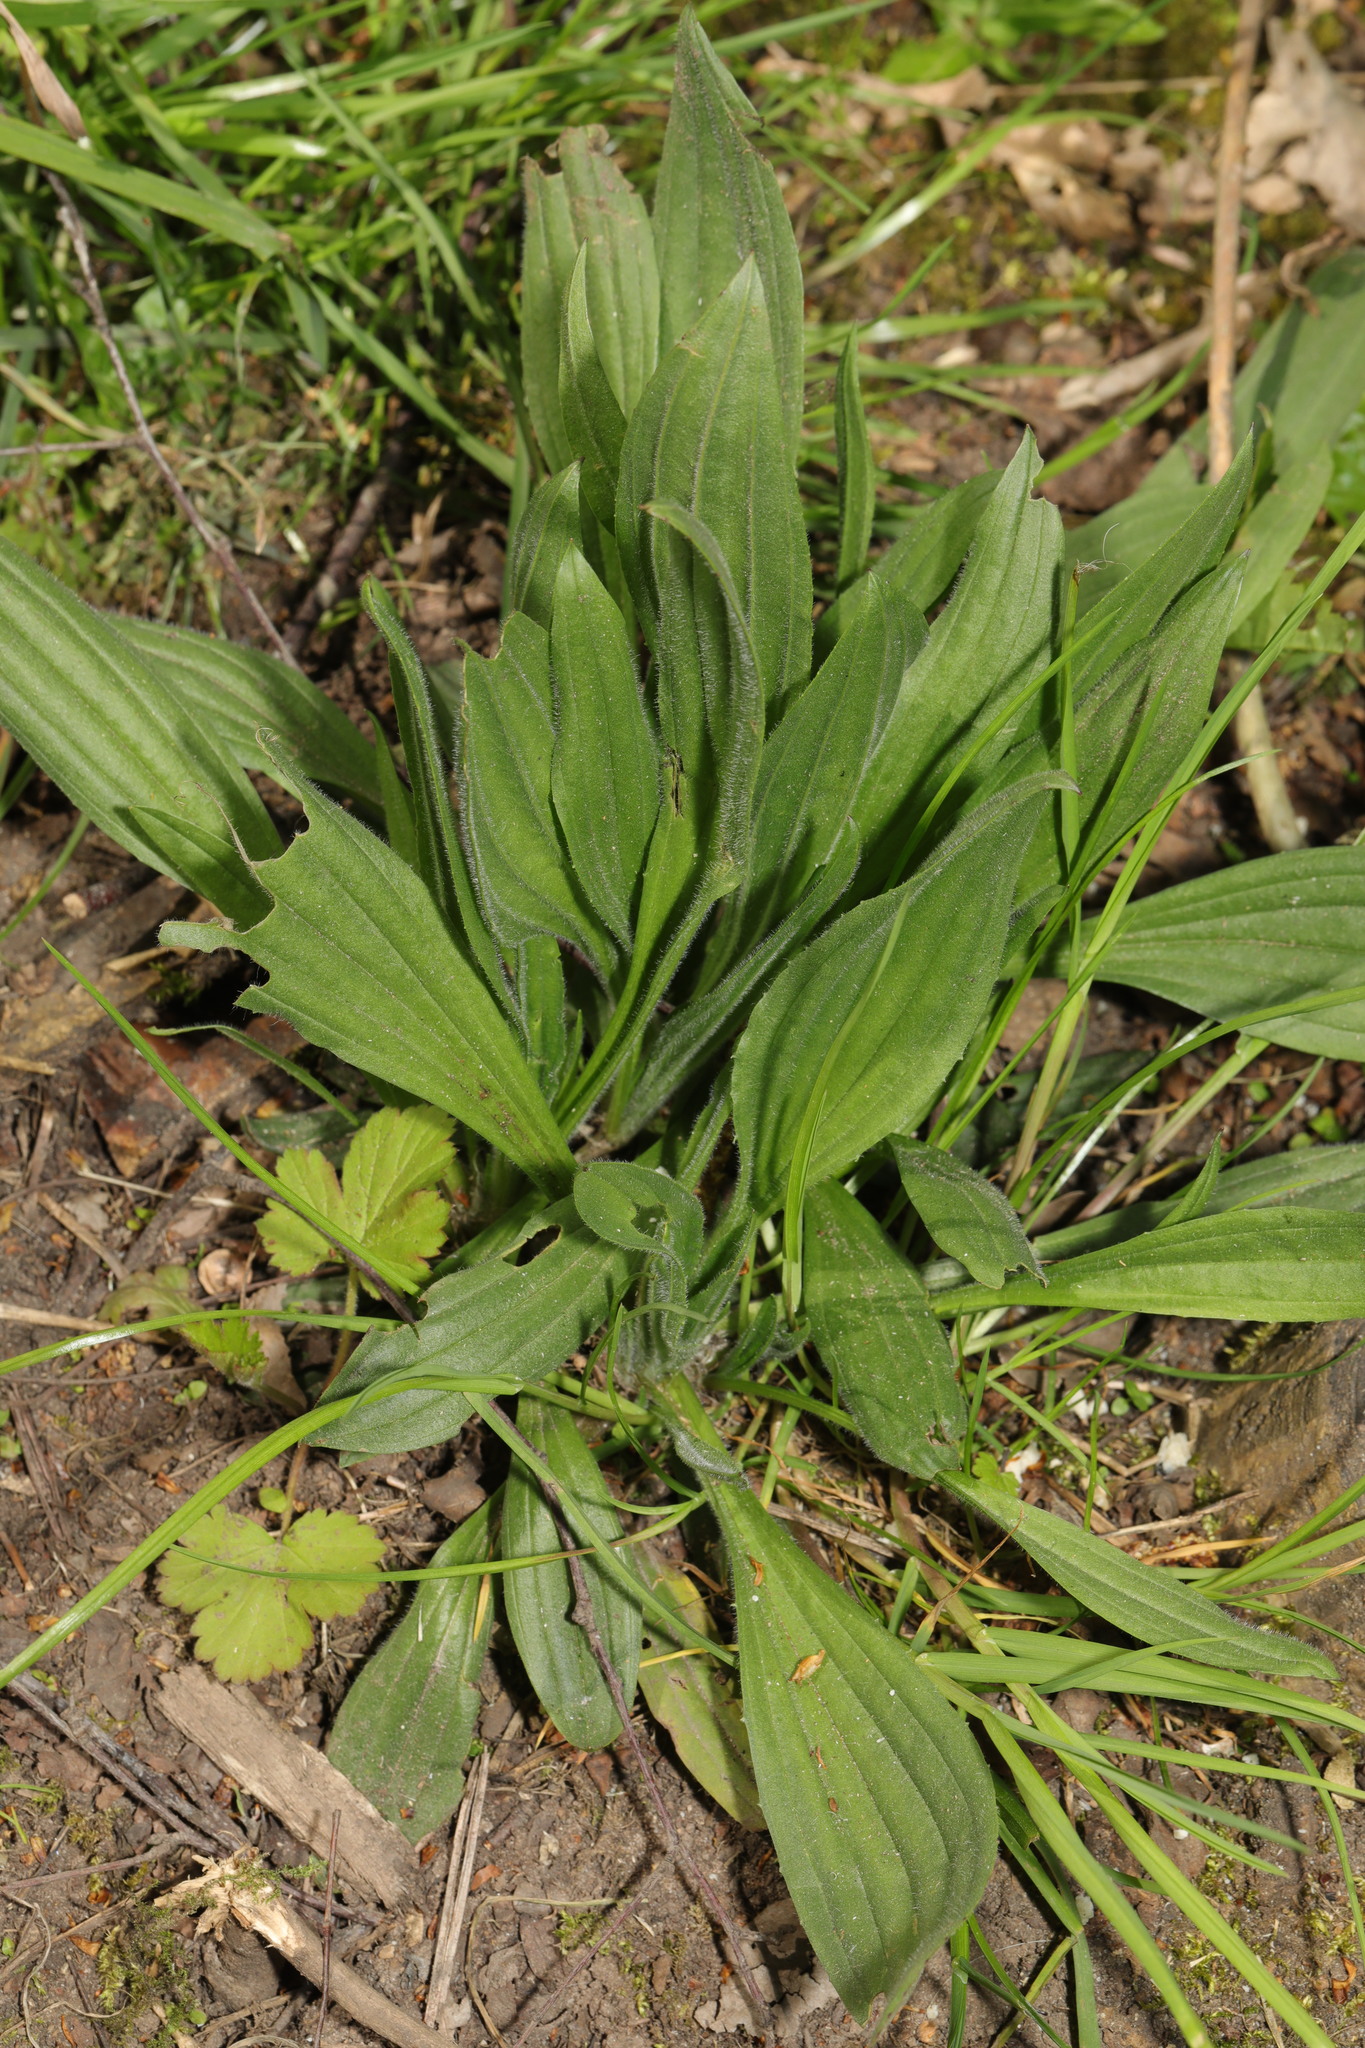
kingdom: Plantae
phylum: Tracheophyta
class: Magnoliopsida
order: Lamiales
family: Plantaginaceae
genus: Plantago
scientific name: Plantago lanceolata
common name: Ribwort plantain
